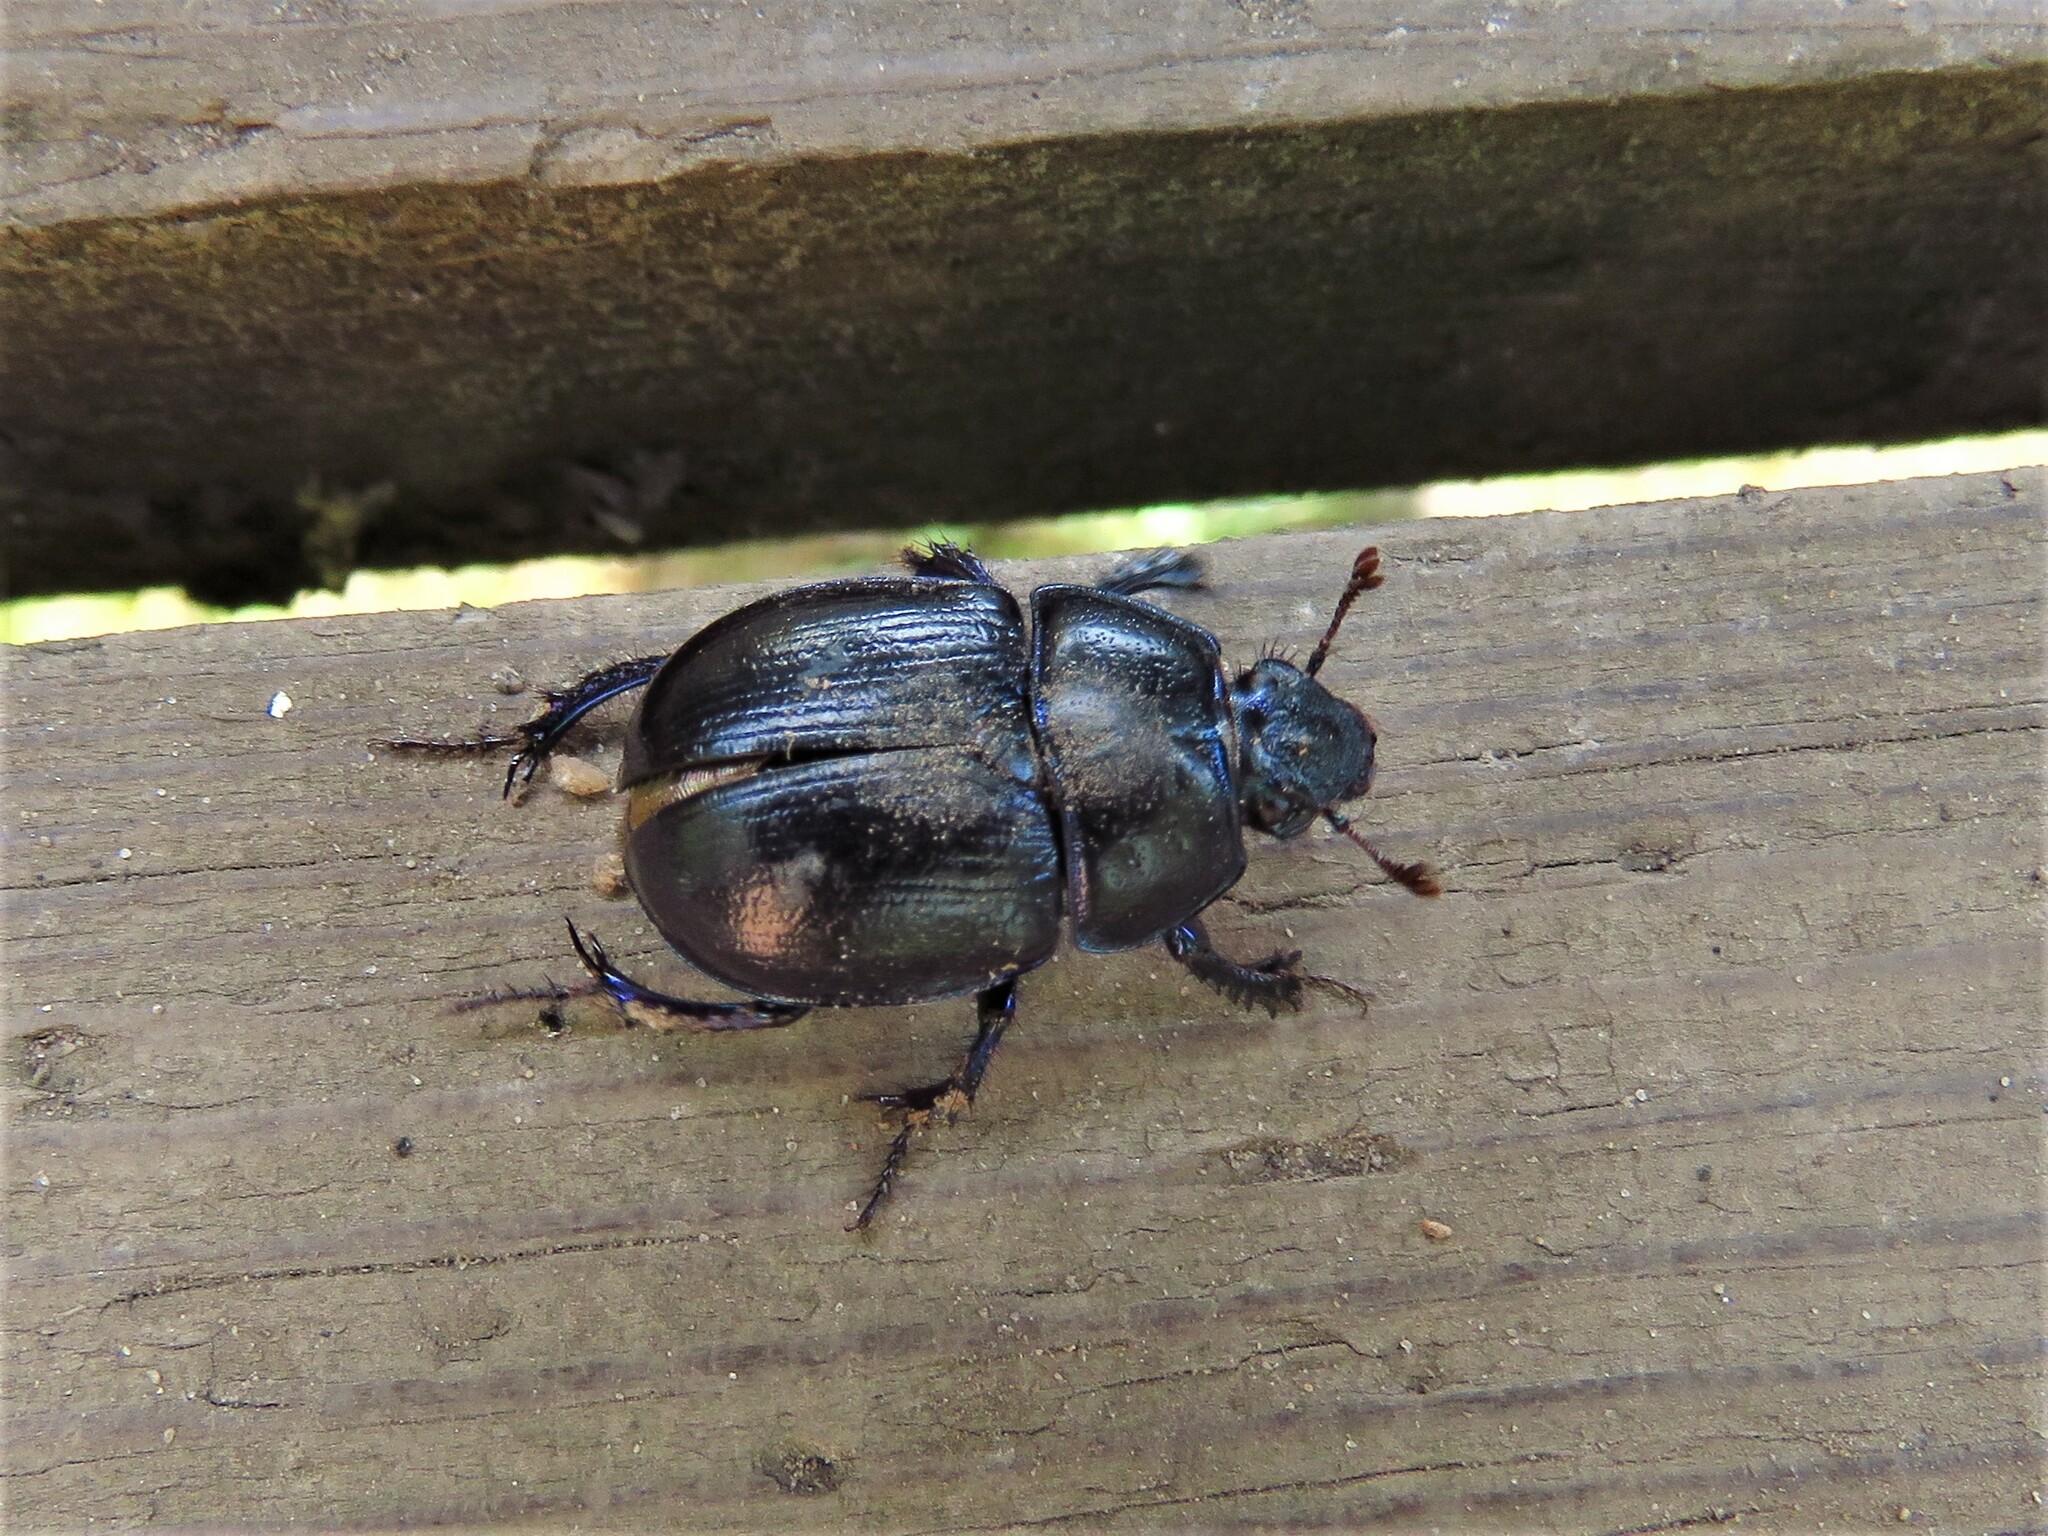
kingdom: Animalia
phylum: Arthropoda
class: Insecta
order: Coleoptera
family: Geotrupidae
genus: Anoplotrupes
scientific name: Anoplotrupes stercorosus
